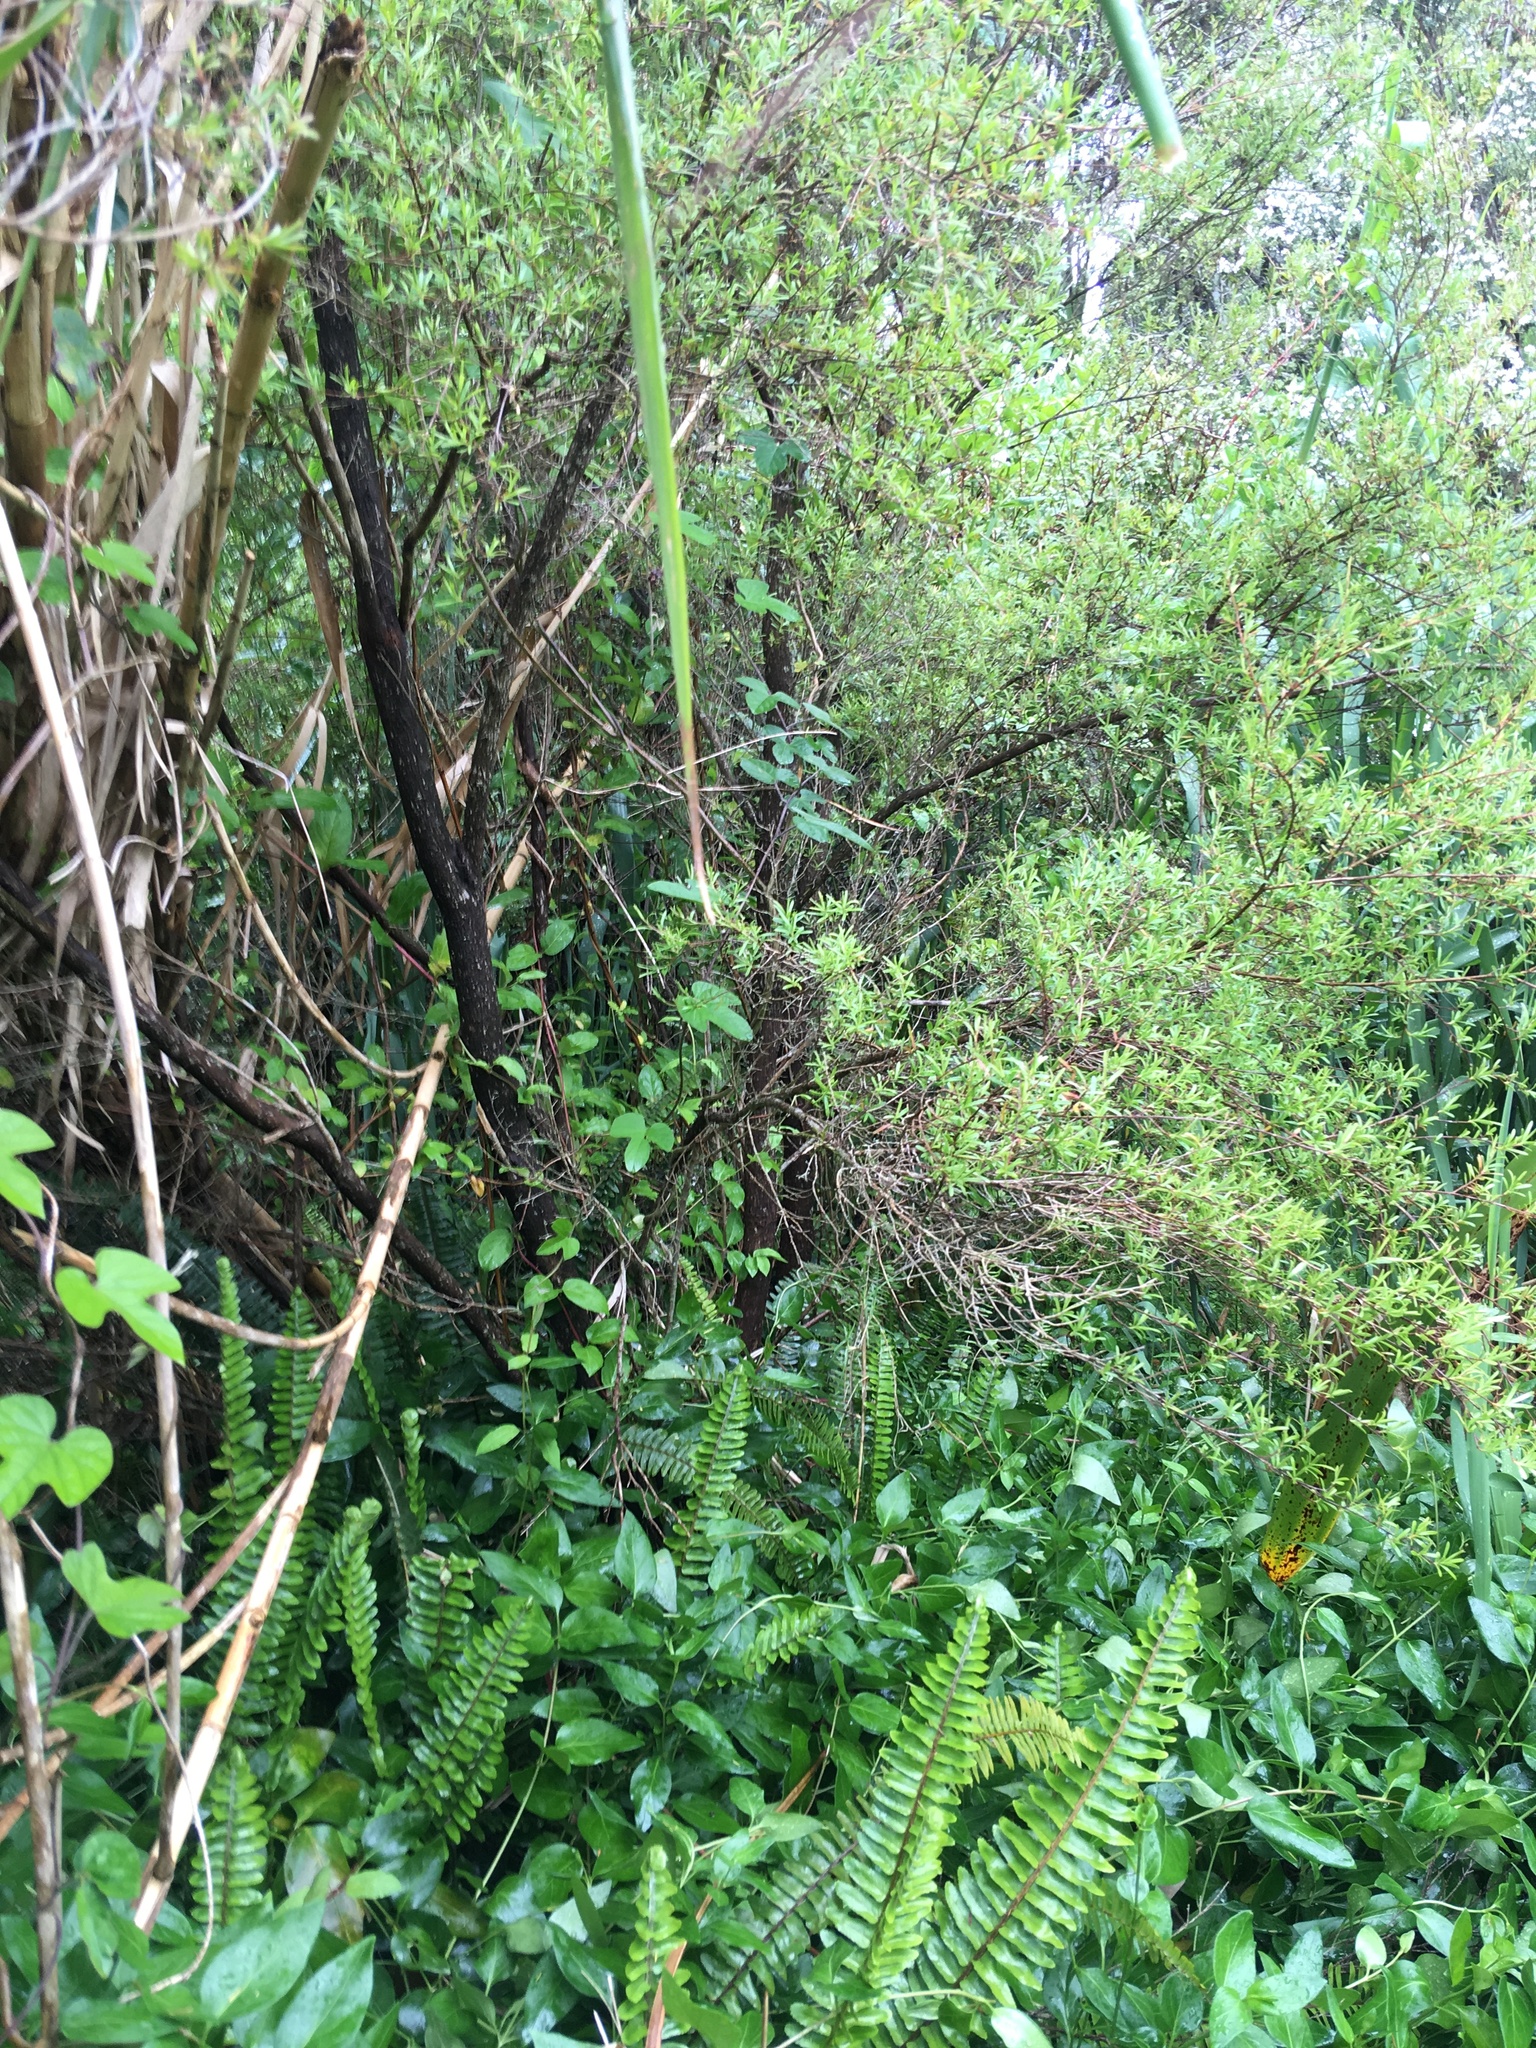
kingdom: Plantae
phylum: Tracheophyta
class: Magnoliopsida
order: Solanales
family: Convolvulaceae
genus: Ipomoea
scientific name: Ipomoea indica
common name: Blue dawnflower
